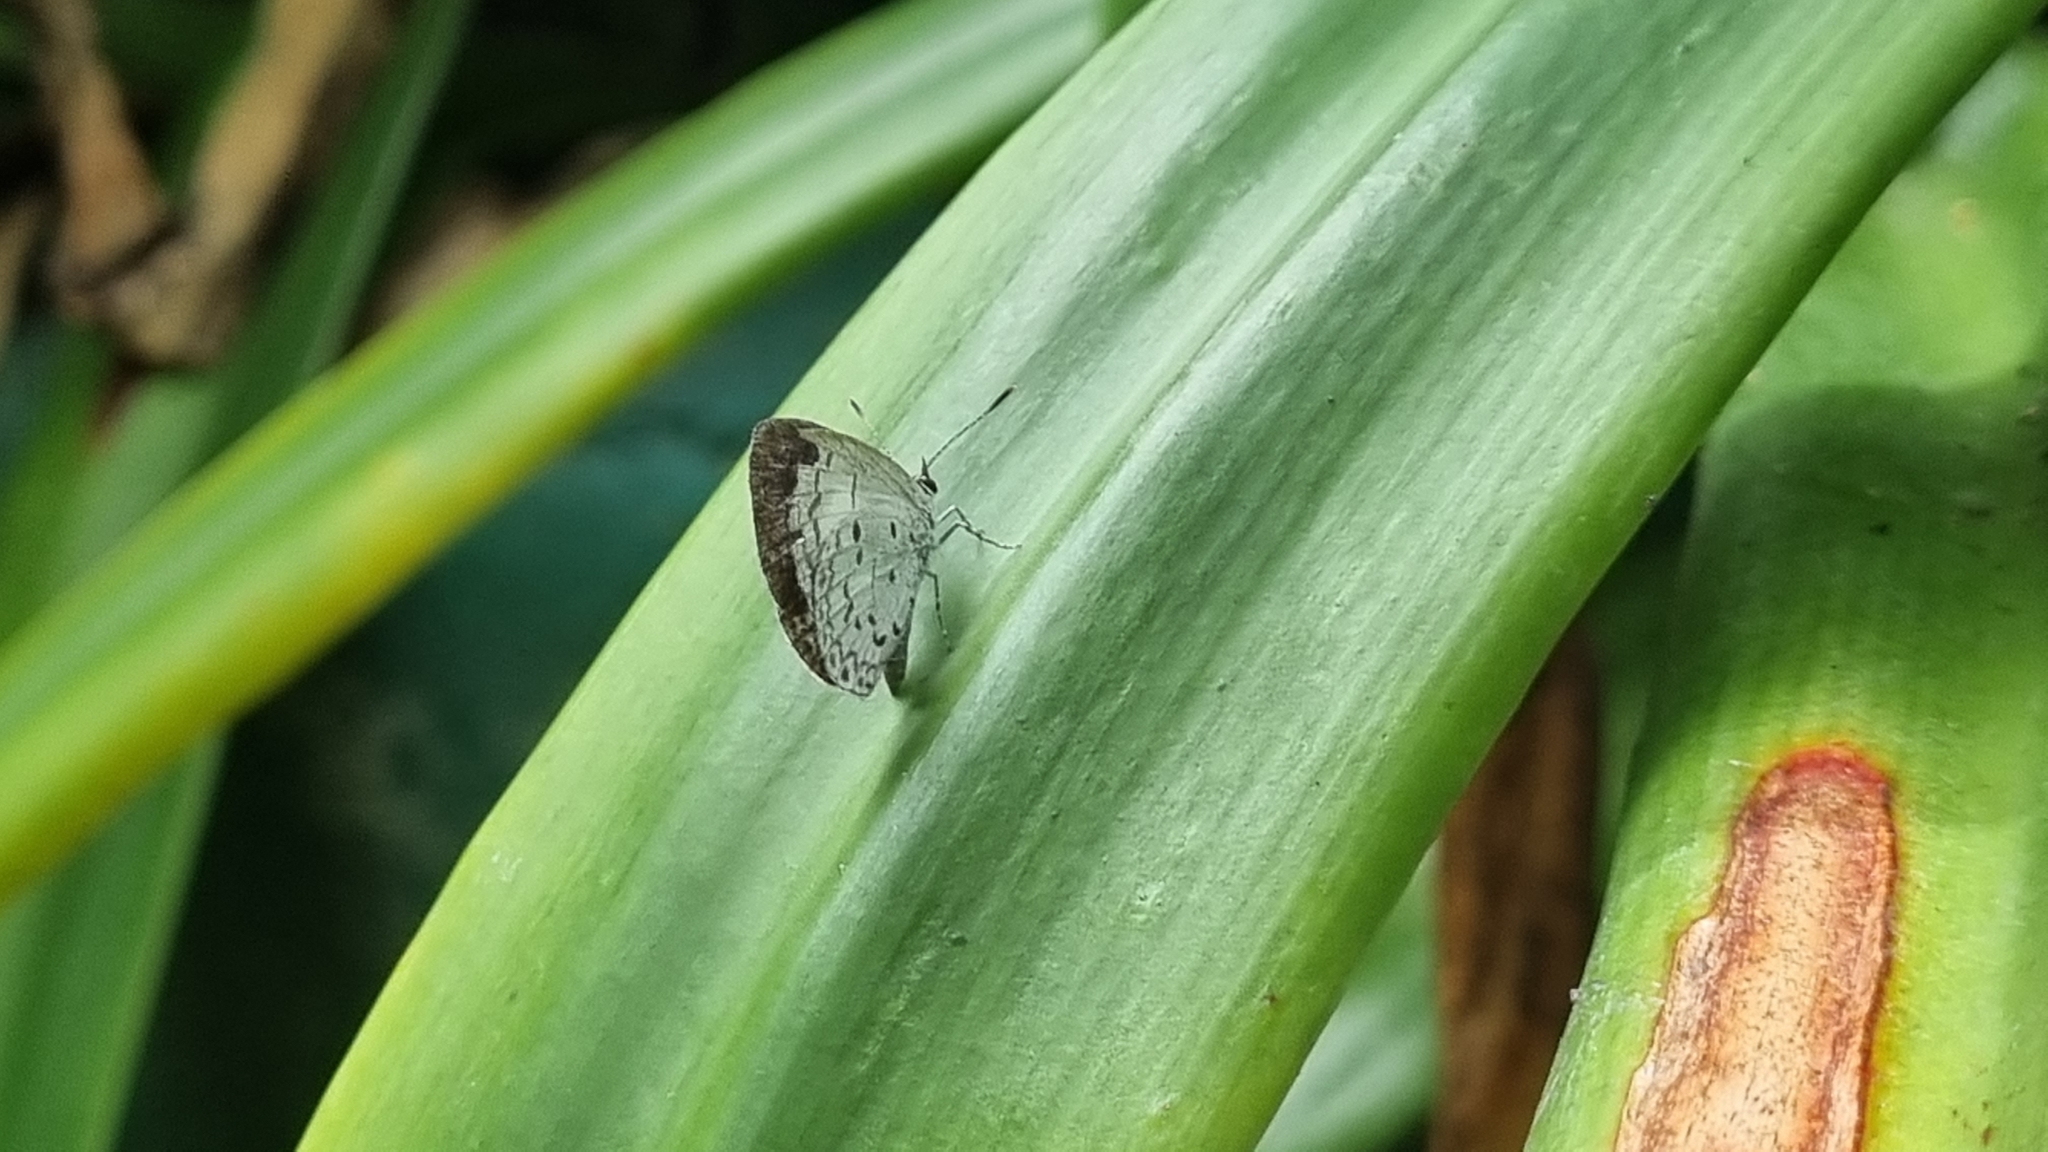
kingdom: Animalia
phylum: Arthropoda
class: Insecta
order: Lepidoptera
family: Lycaenidae
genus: Acytolepis
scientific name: Acytolepis puspa
